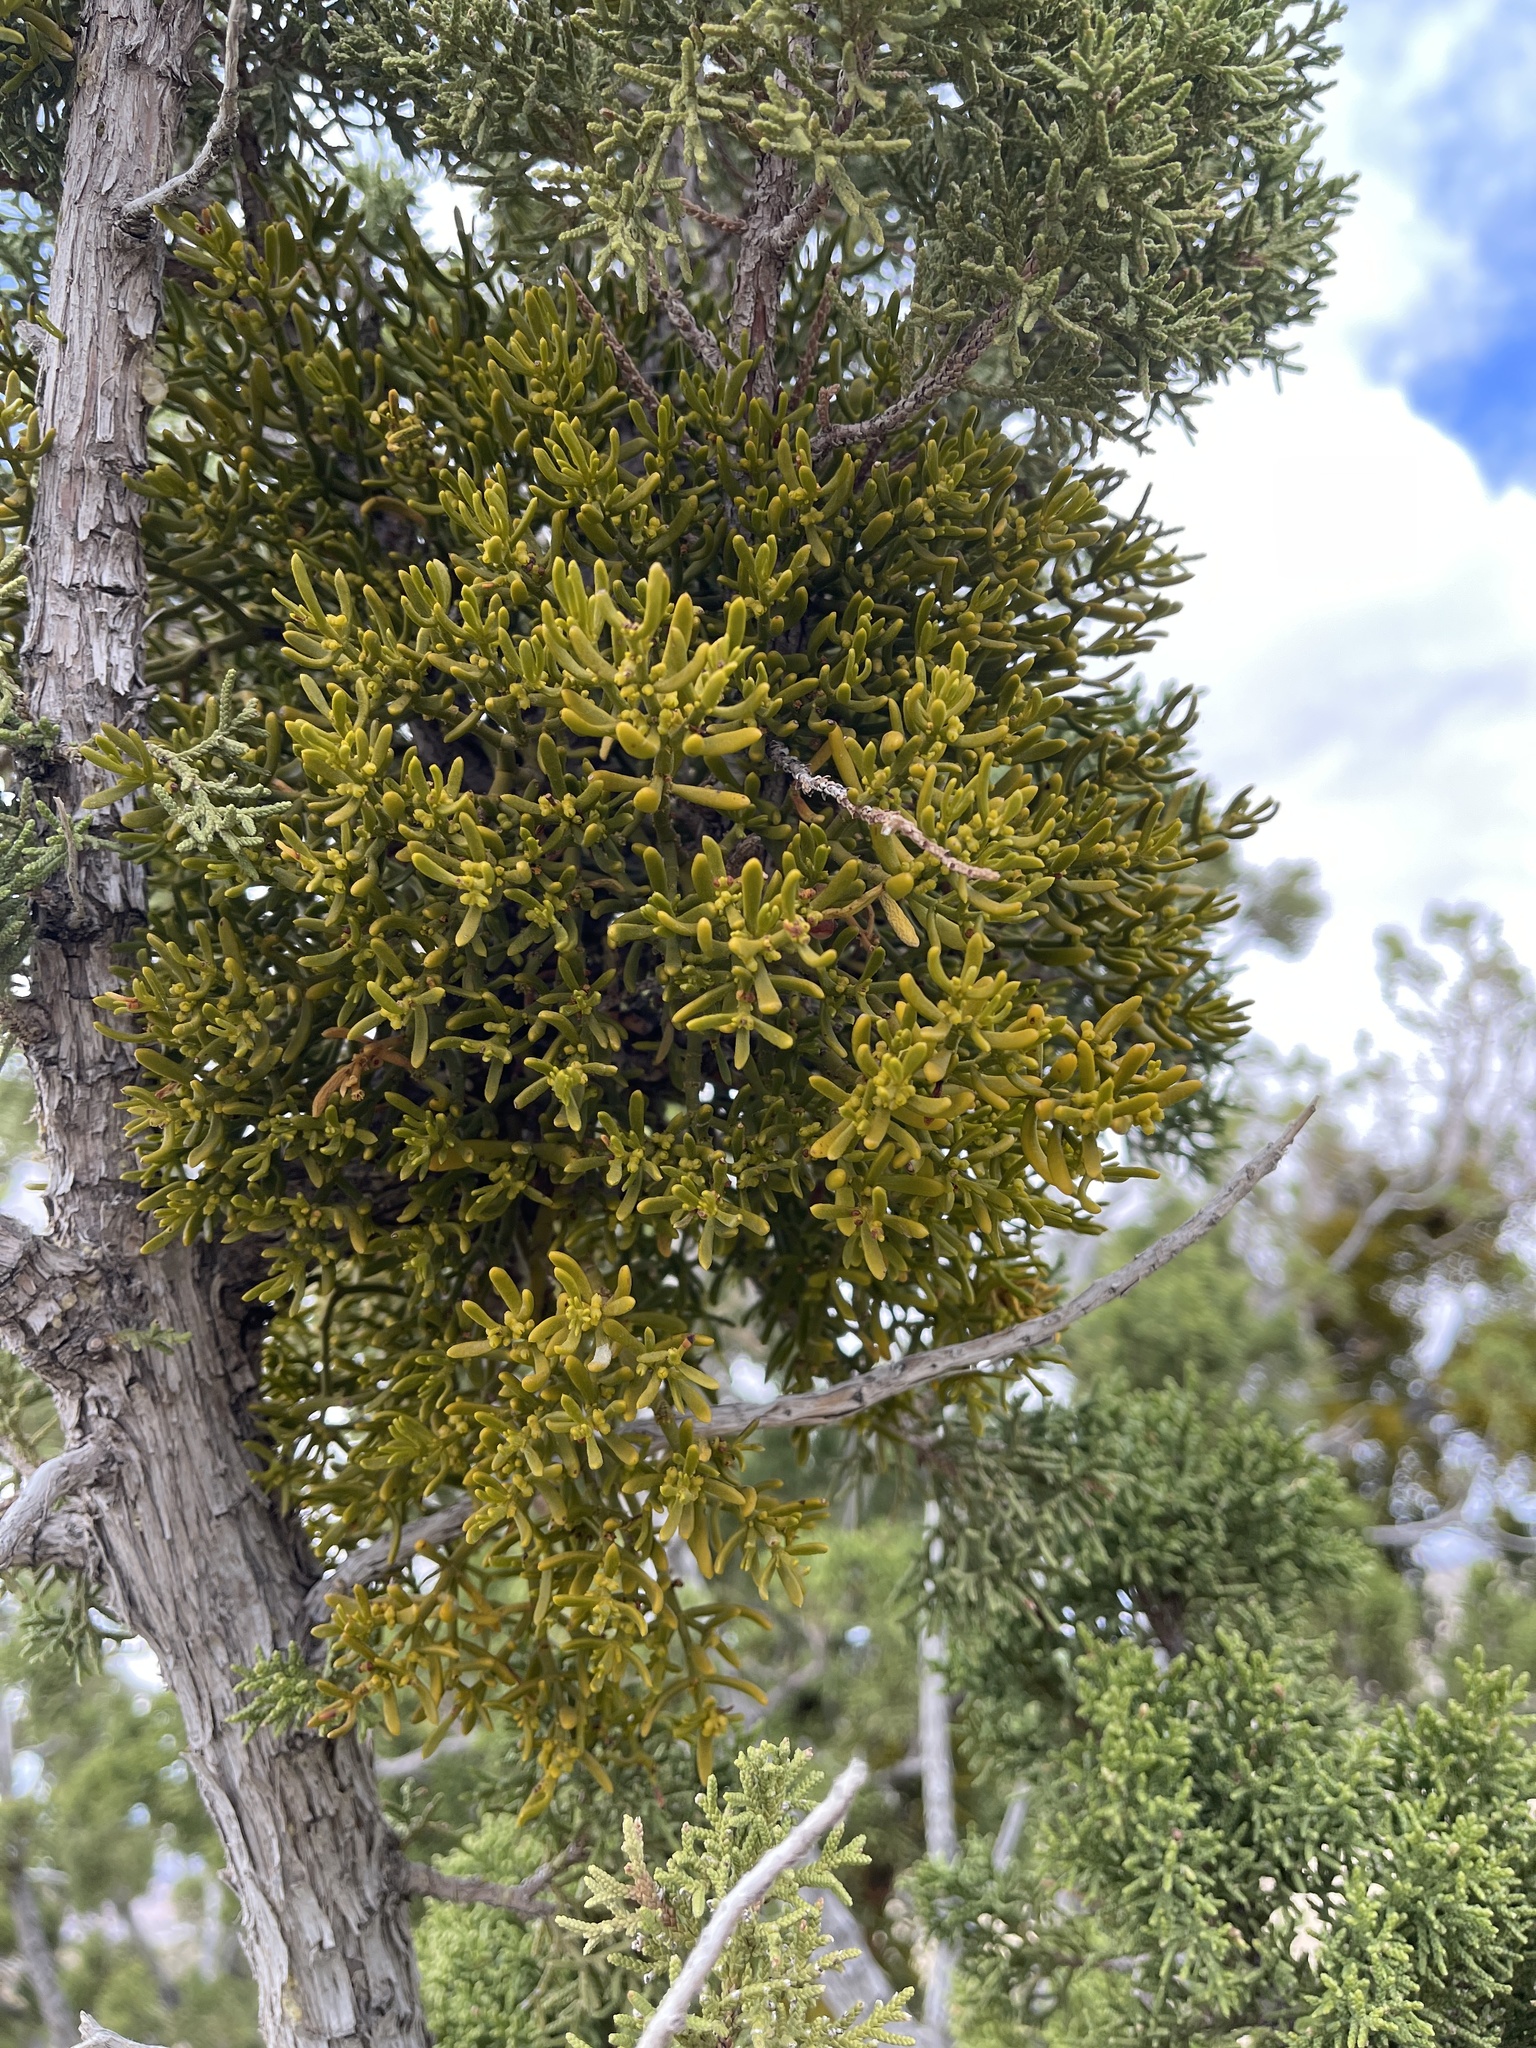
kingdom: Plantae
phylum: Tracheophyta
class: Magnoliopsida
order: Santalales
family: Viscaceae
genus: Phoradendron
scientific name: Phoradendron hawksworthii
